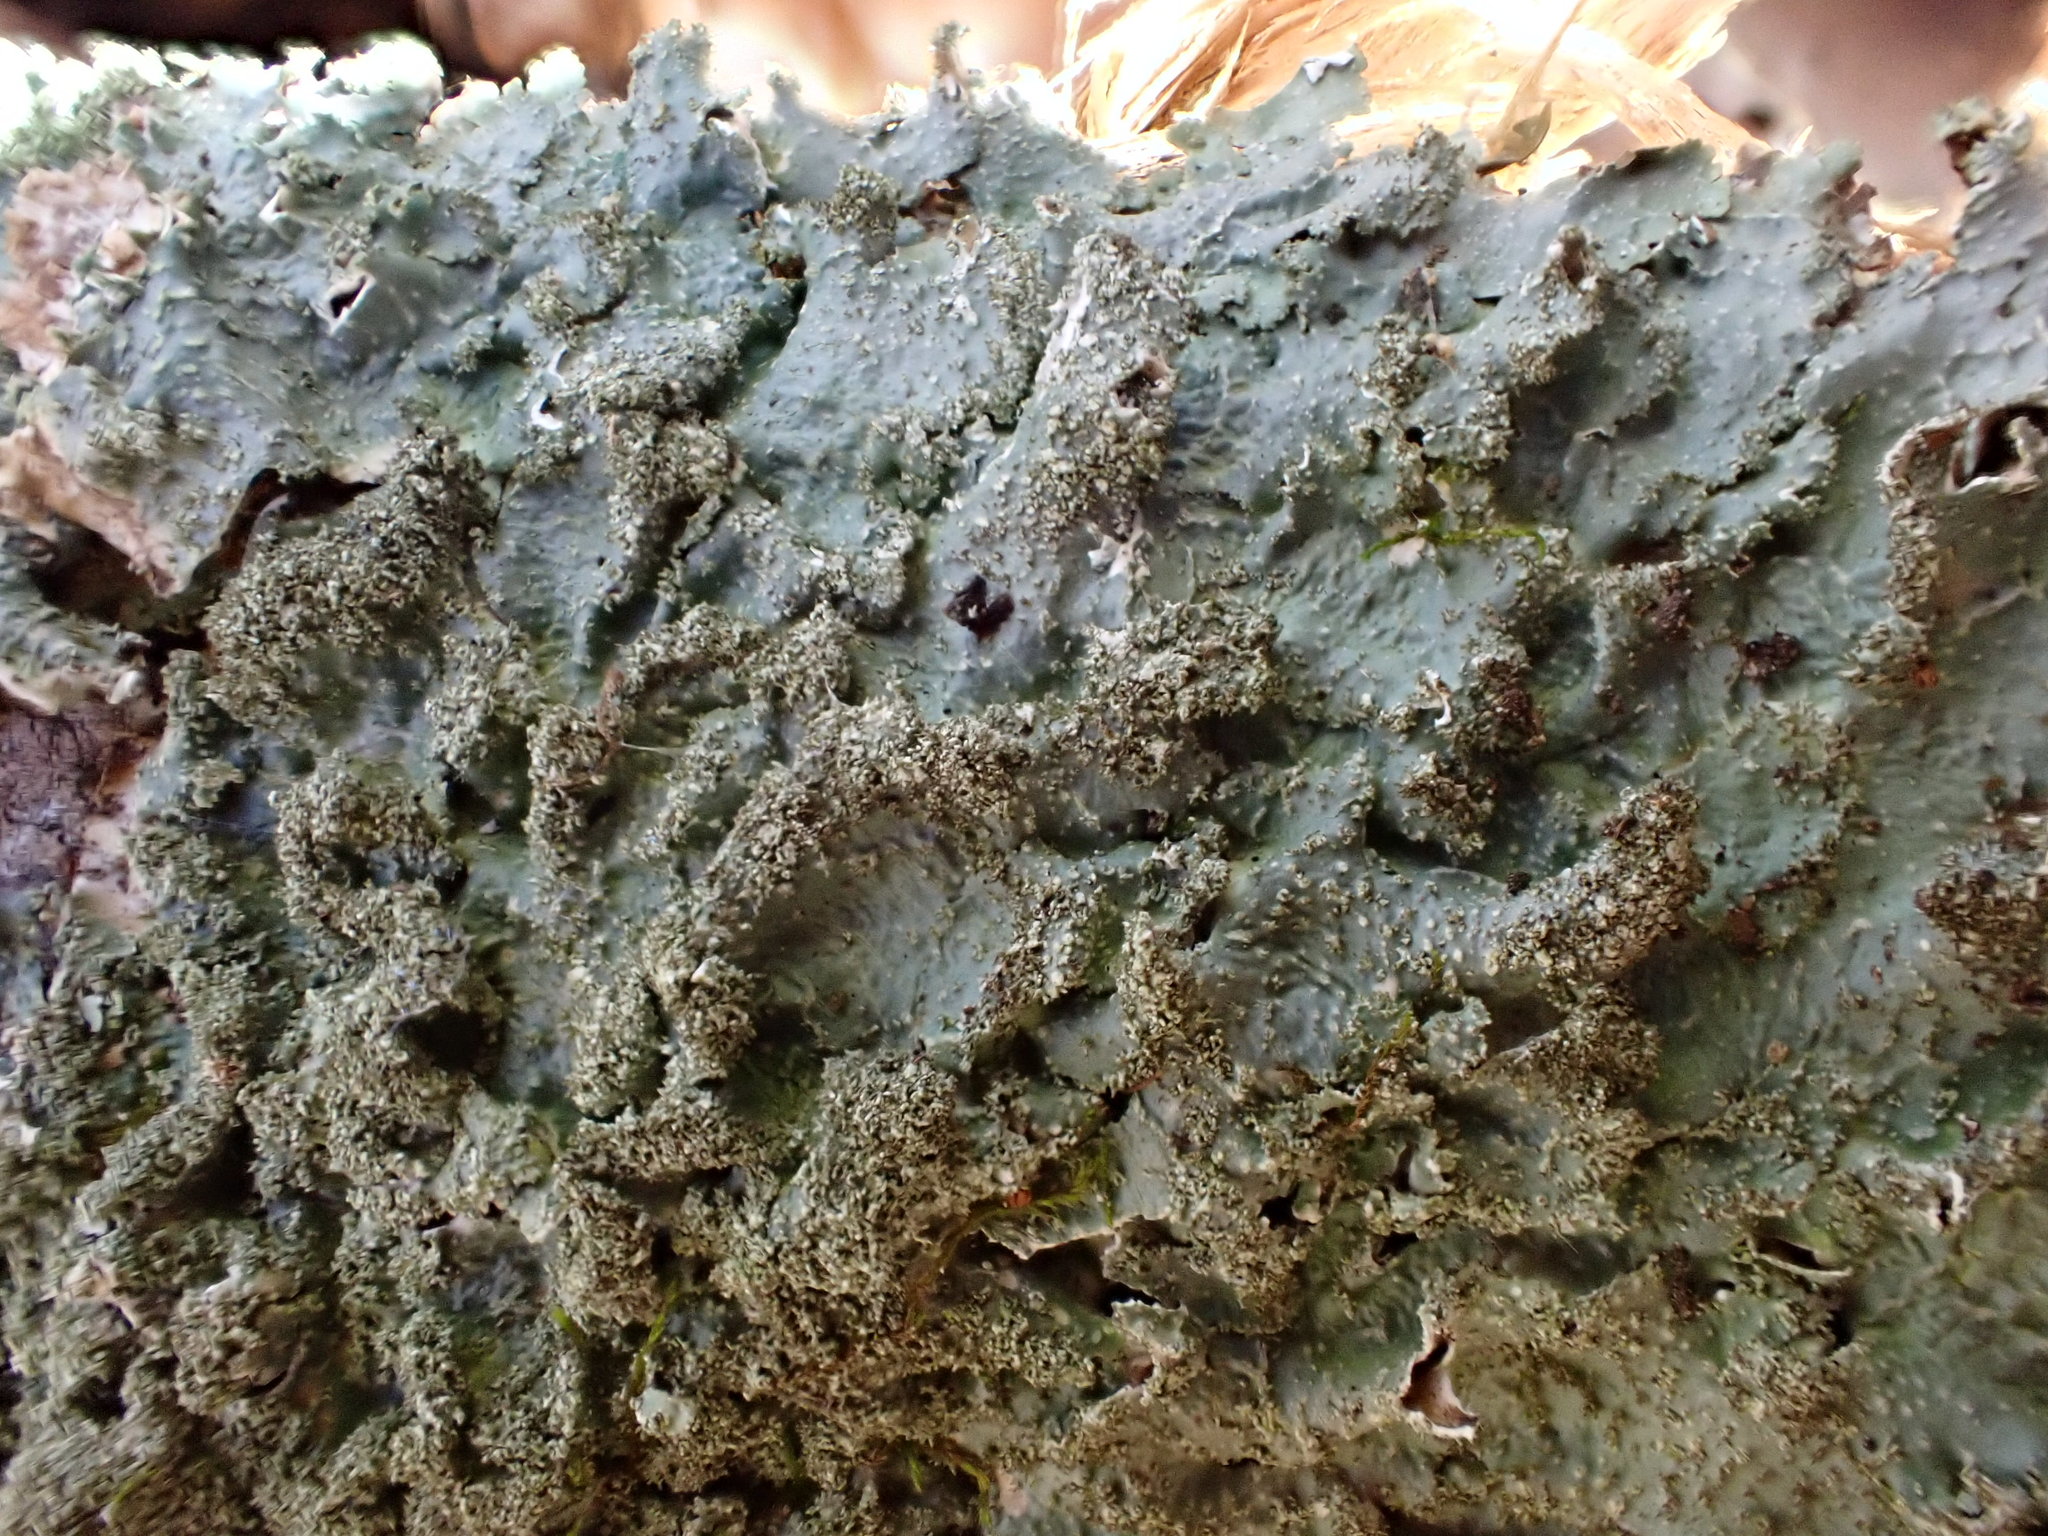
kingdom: Fungi
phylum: Ascomycota
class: Lecanoromycetes
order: Lecanorales
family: Parmeliaceae
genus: Punctelia
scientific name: Punctelia rudecta
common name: Rough speckled shield lichen
